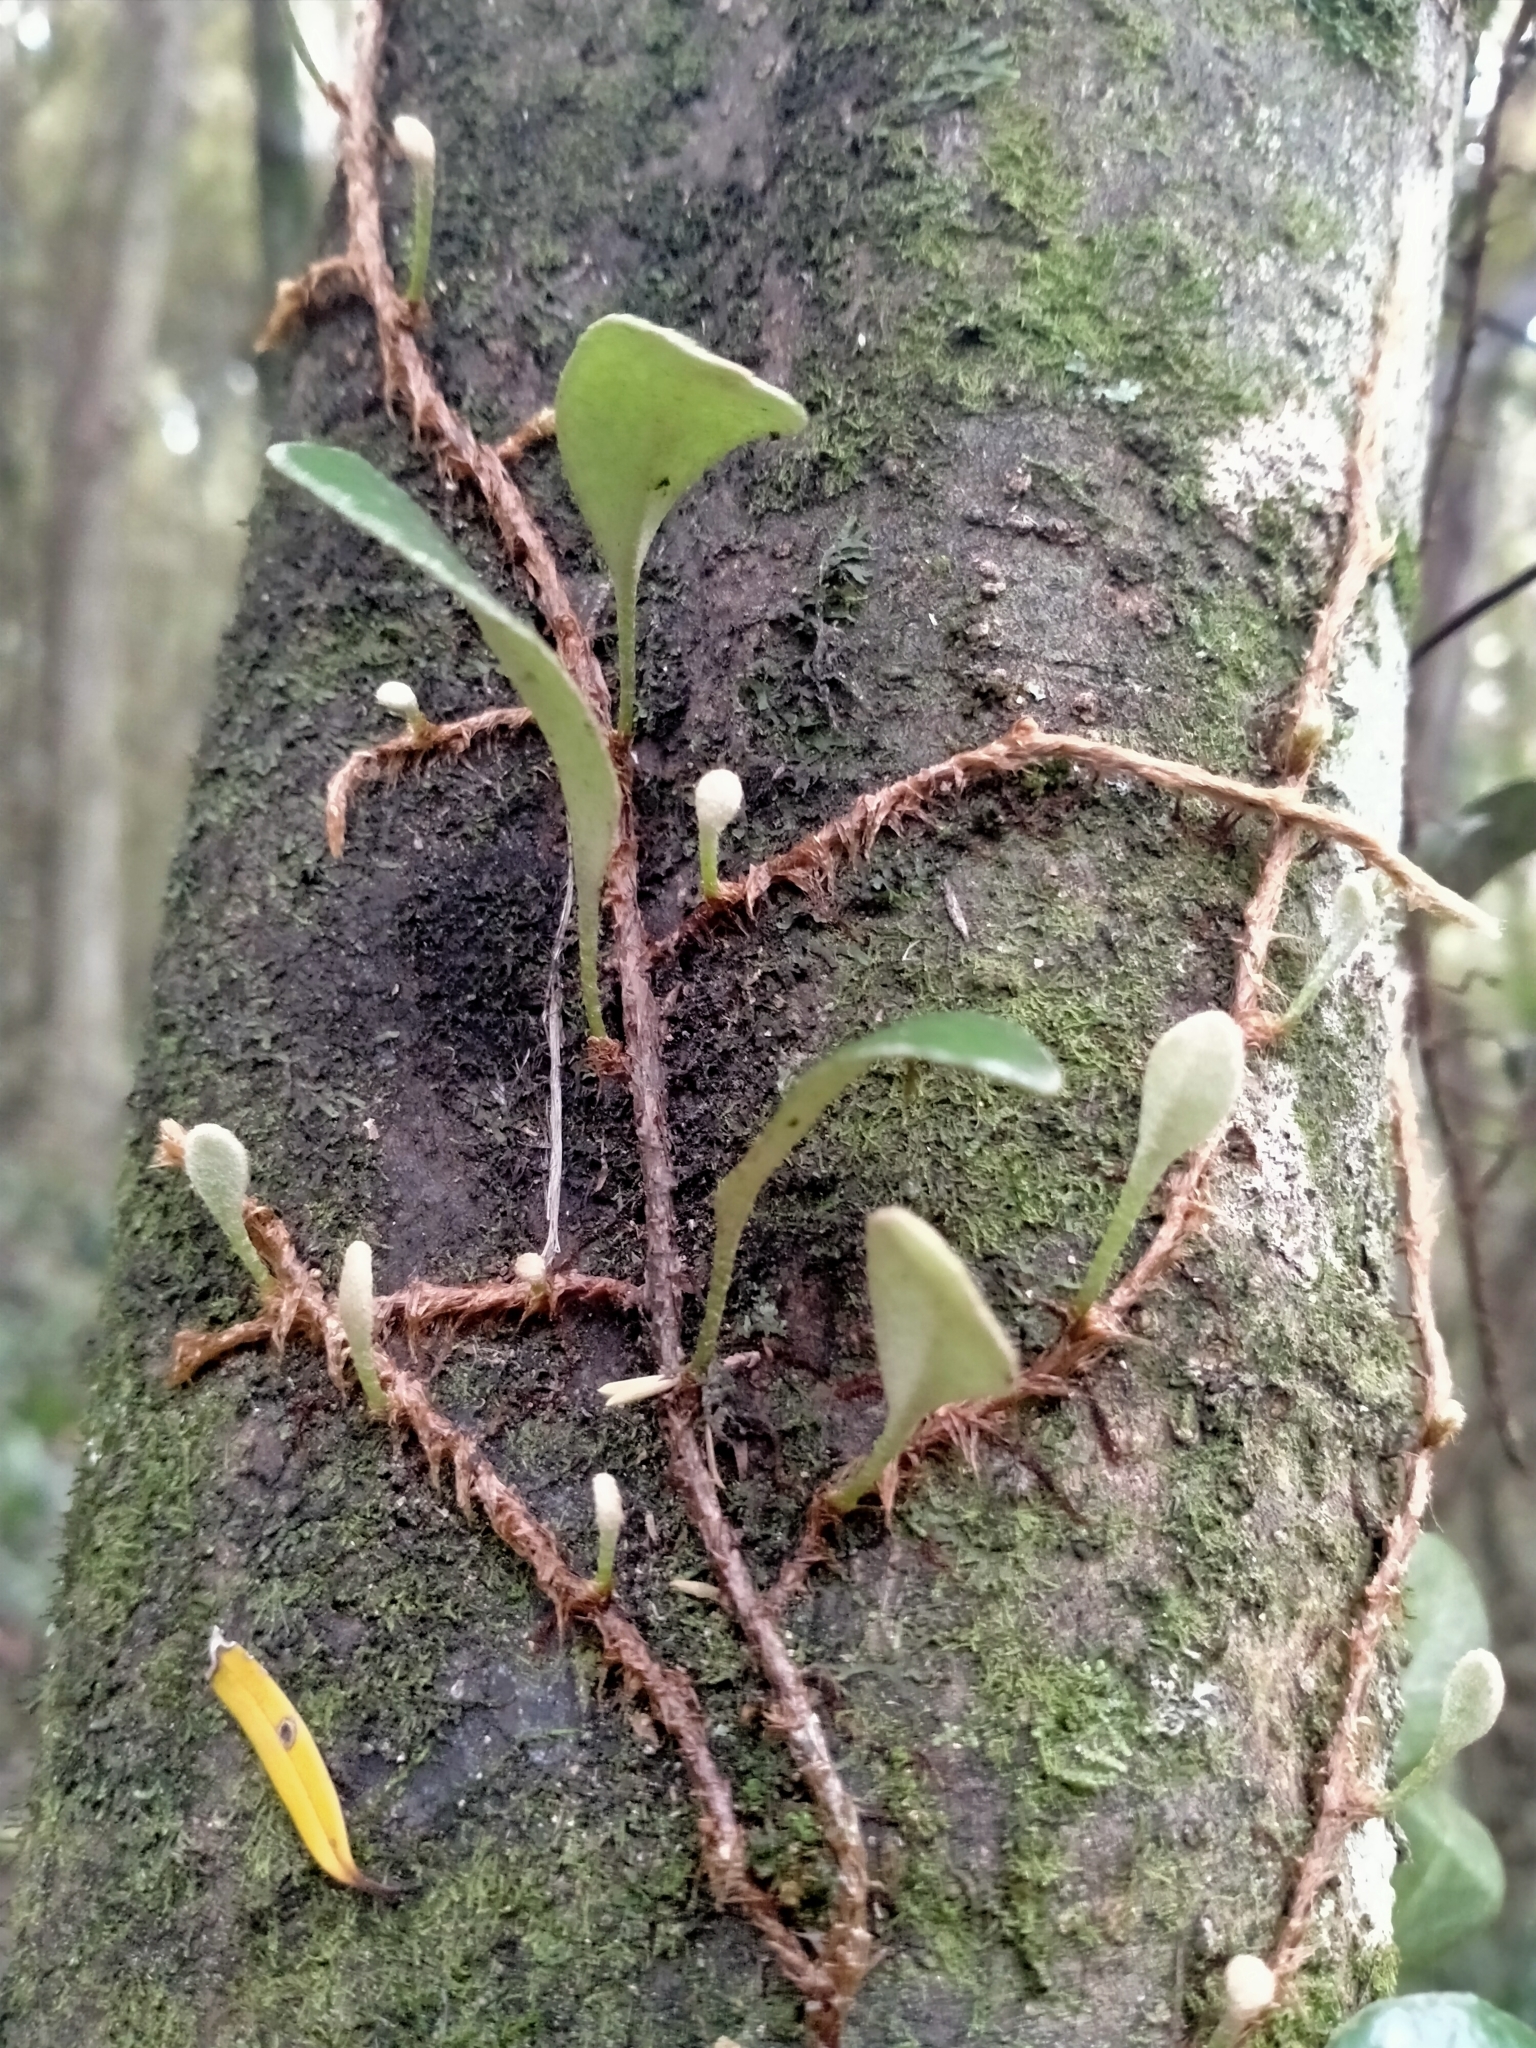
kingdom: Plantae
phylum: Tracheophyta
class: Polypodiopsida
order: Polypodiales
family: Polypodiaceae
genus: Pyrrosia
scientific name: Pyrrosia eleagnifolia
